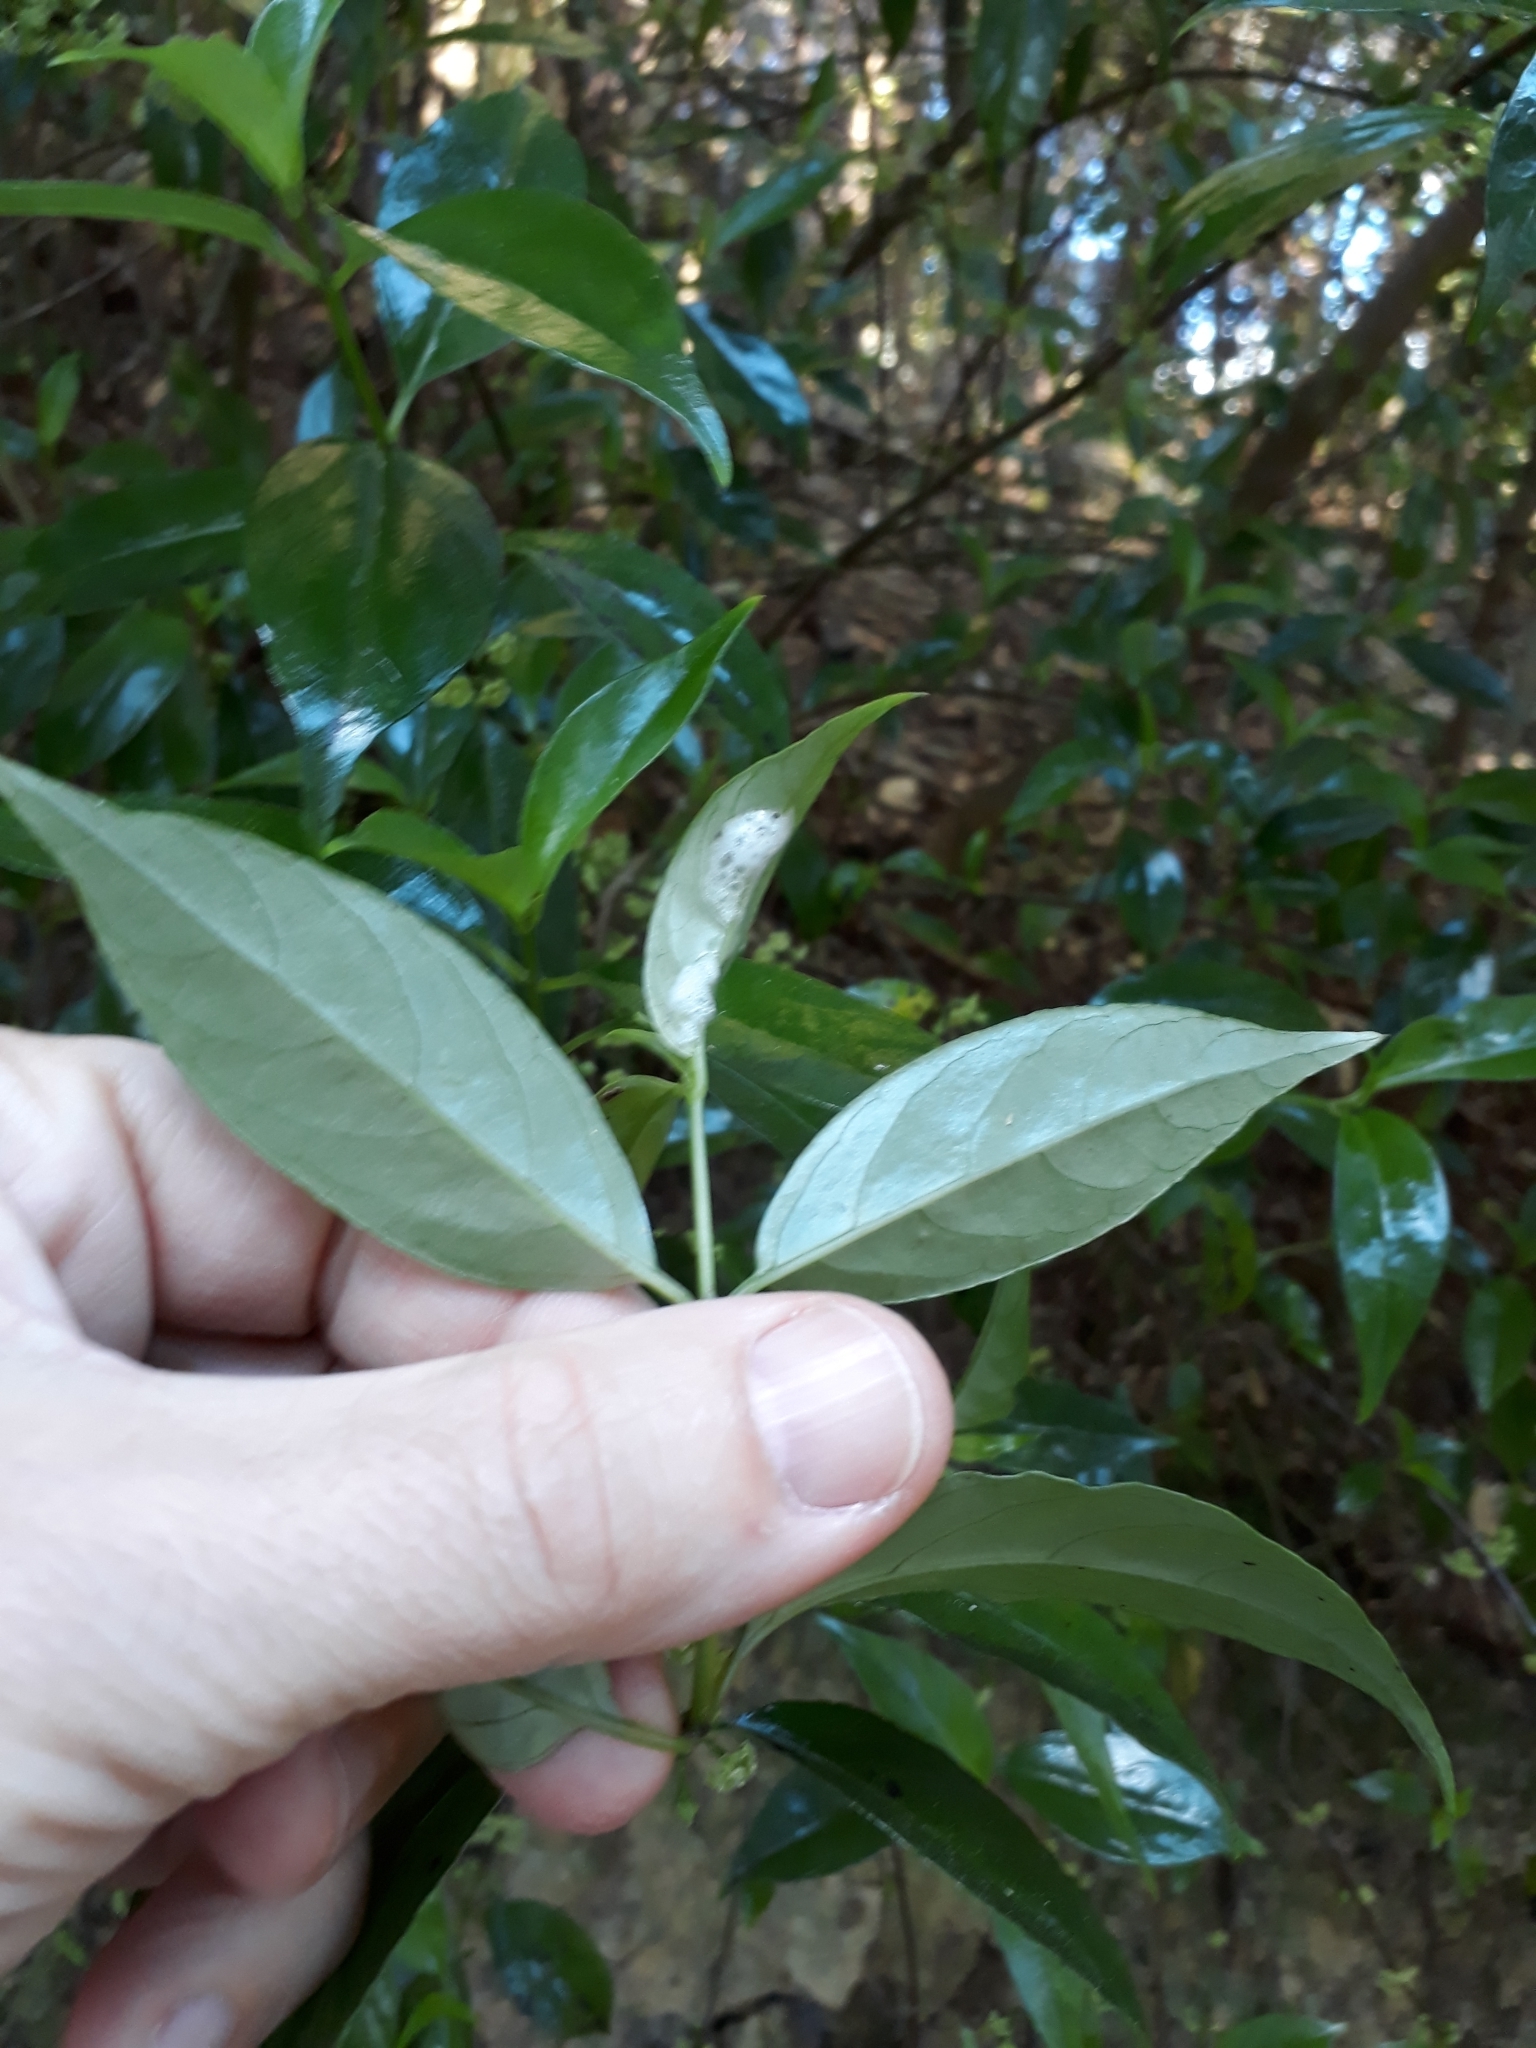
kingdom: Plantae
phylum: Tracheophyta
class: Magnoliopsida
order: Gentianales
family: Loganiaceae
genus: Geniostoma
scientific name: Geniostoma ligustrifolium
